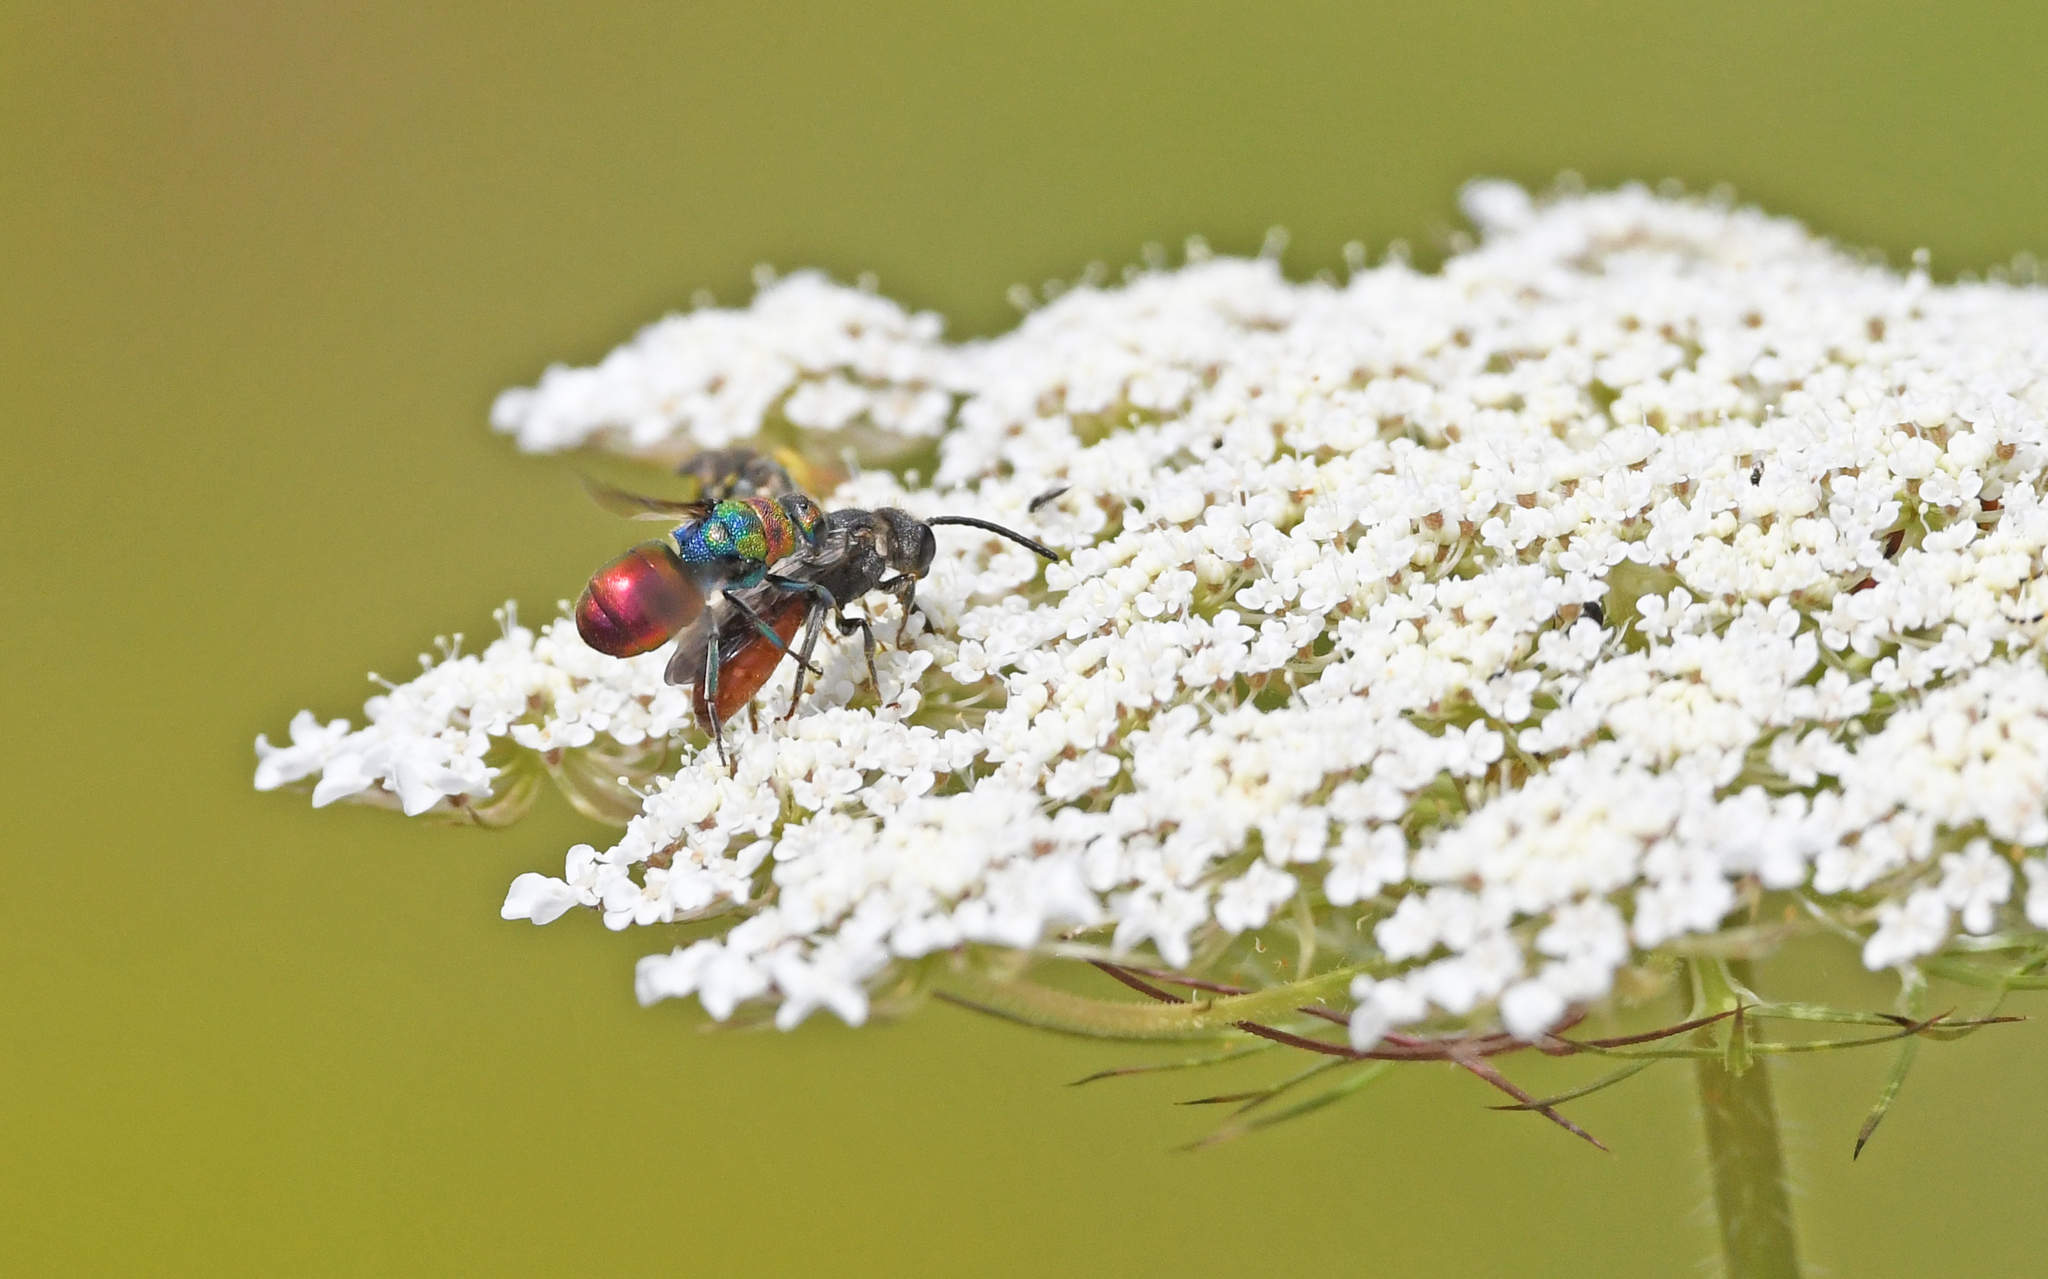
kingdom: Animalia
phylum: Arthropoda
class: Insecta
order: Hymenoptera
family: Chrysididae
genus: Hedychrum
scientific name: Hedychrum rutilans
